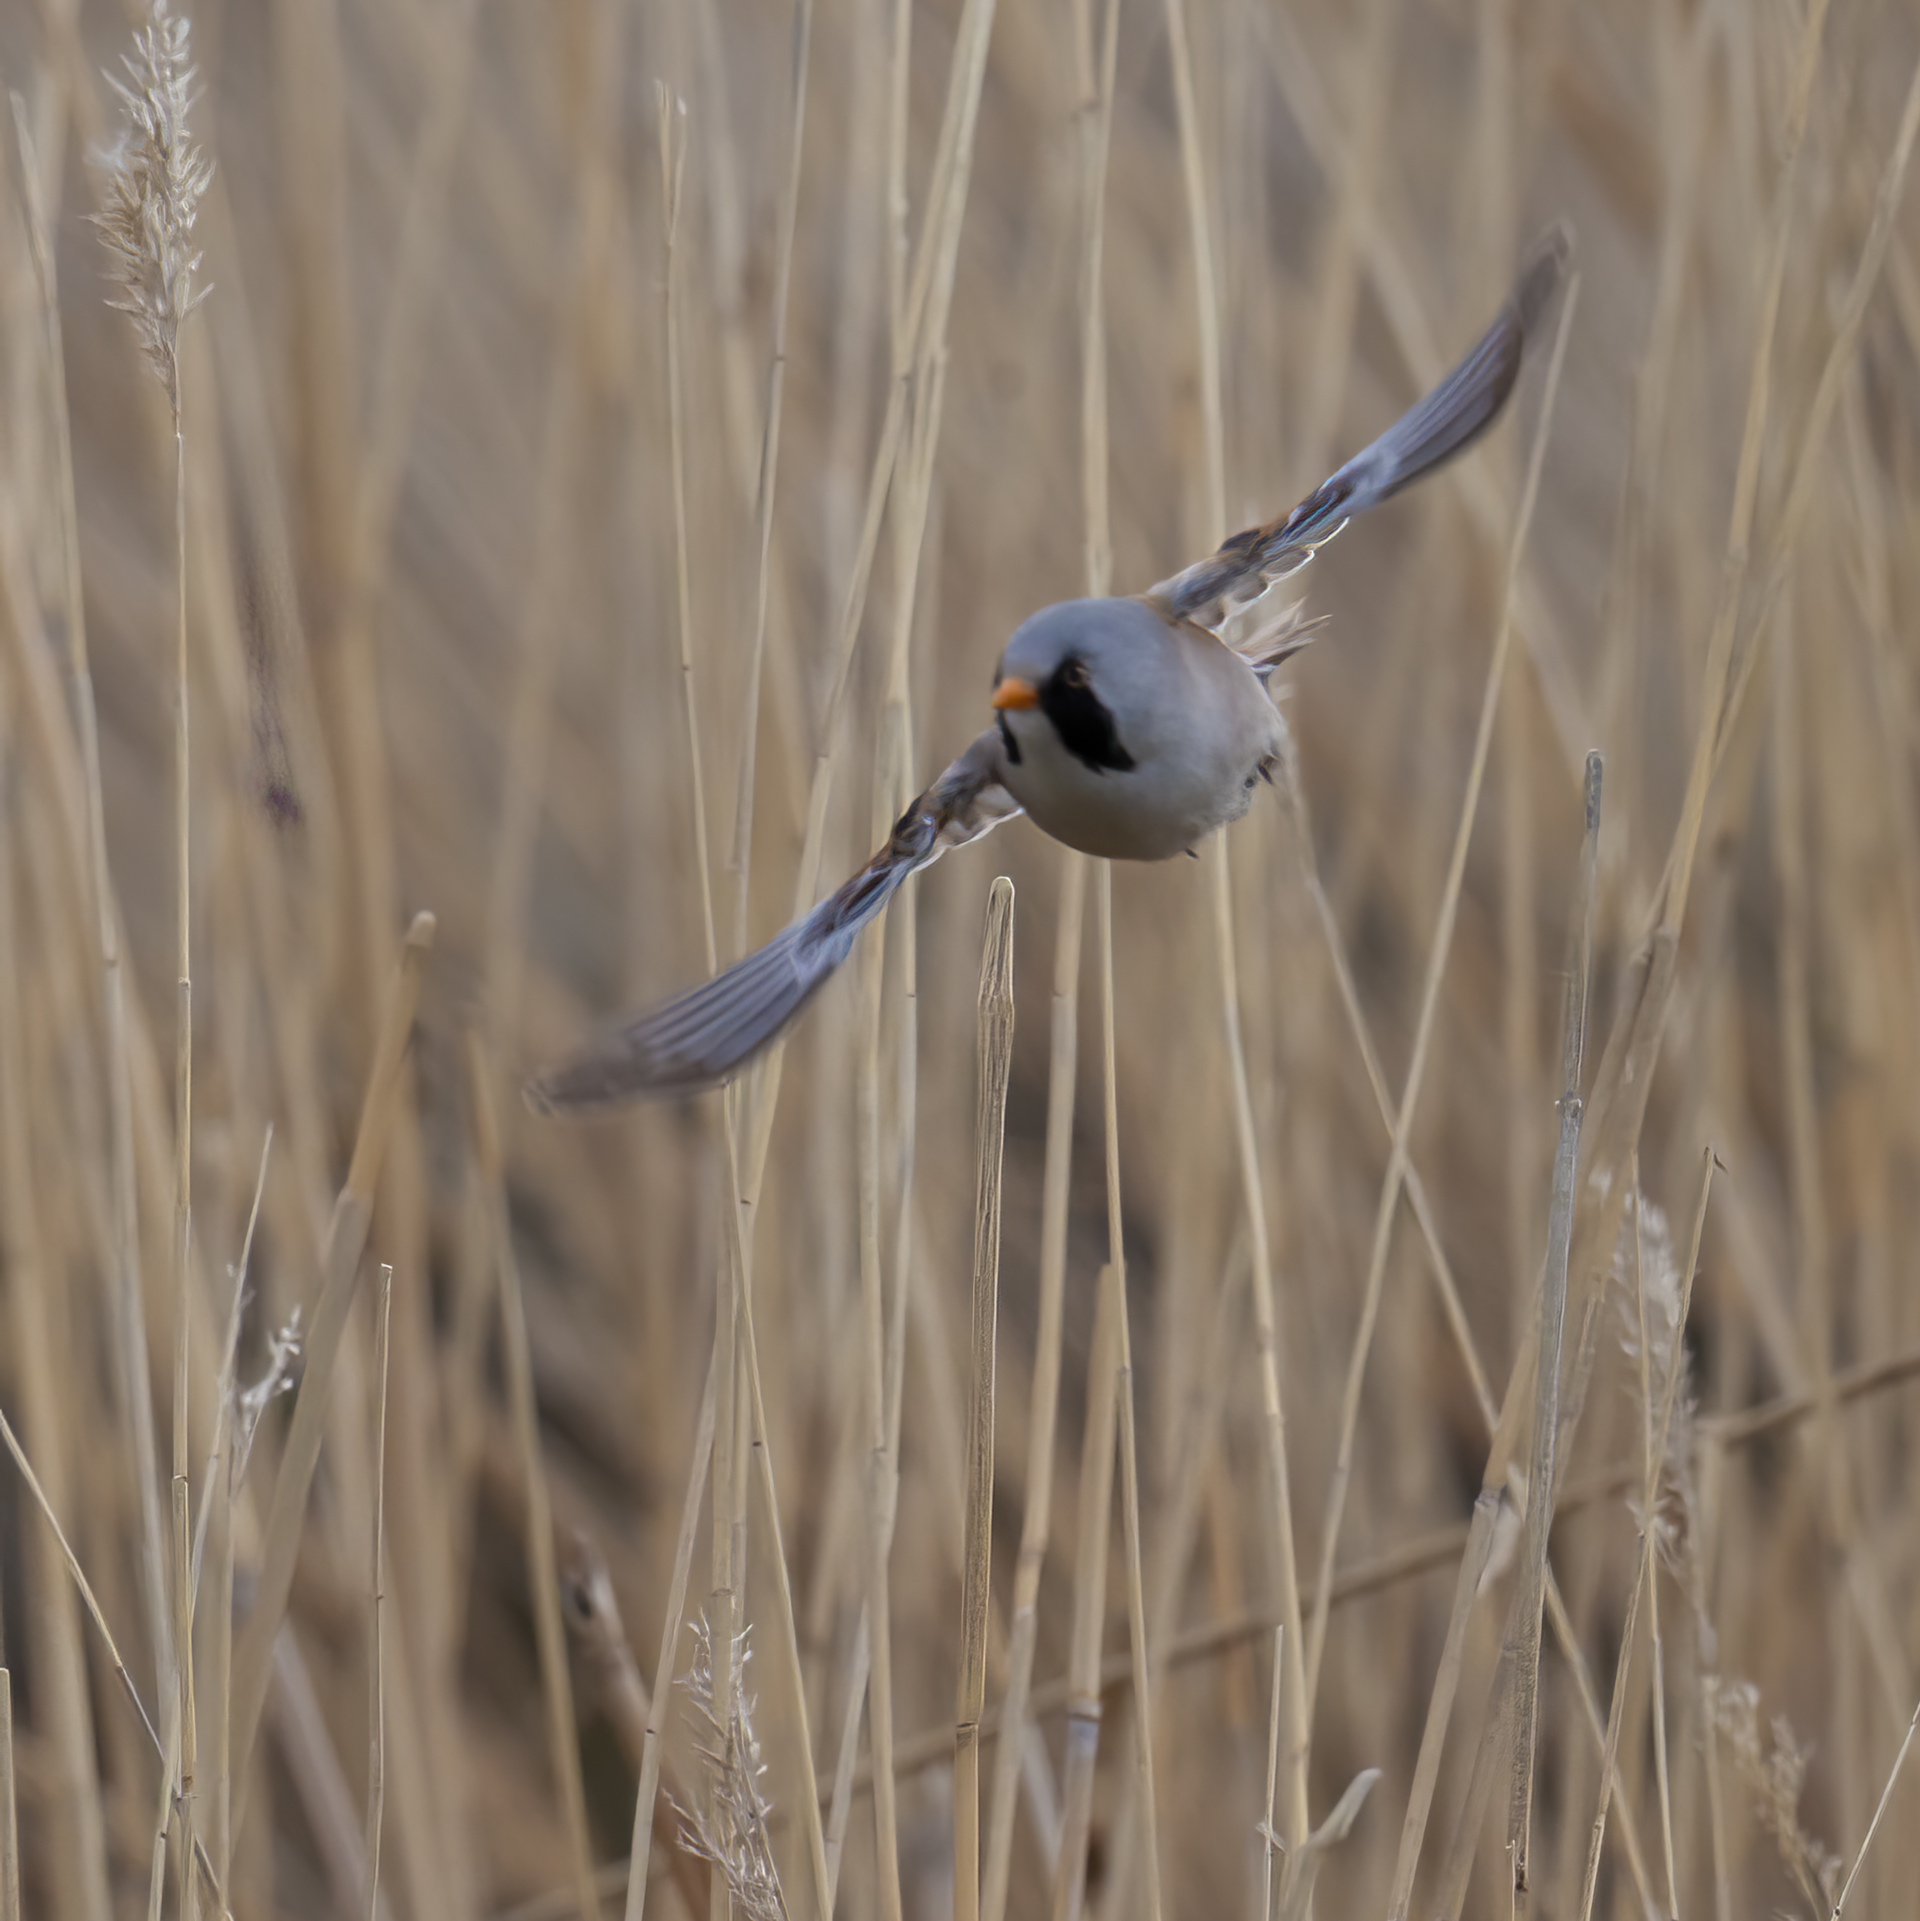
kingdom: Animalia
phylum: Chordata
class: Aves
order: Passeriformes
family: Panuridae
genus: Panurus
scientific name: Panurus biarmicus
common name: Bearded reedling
